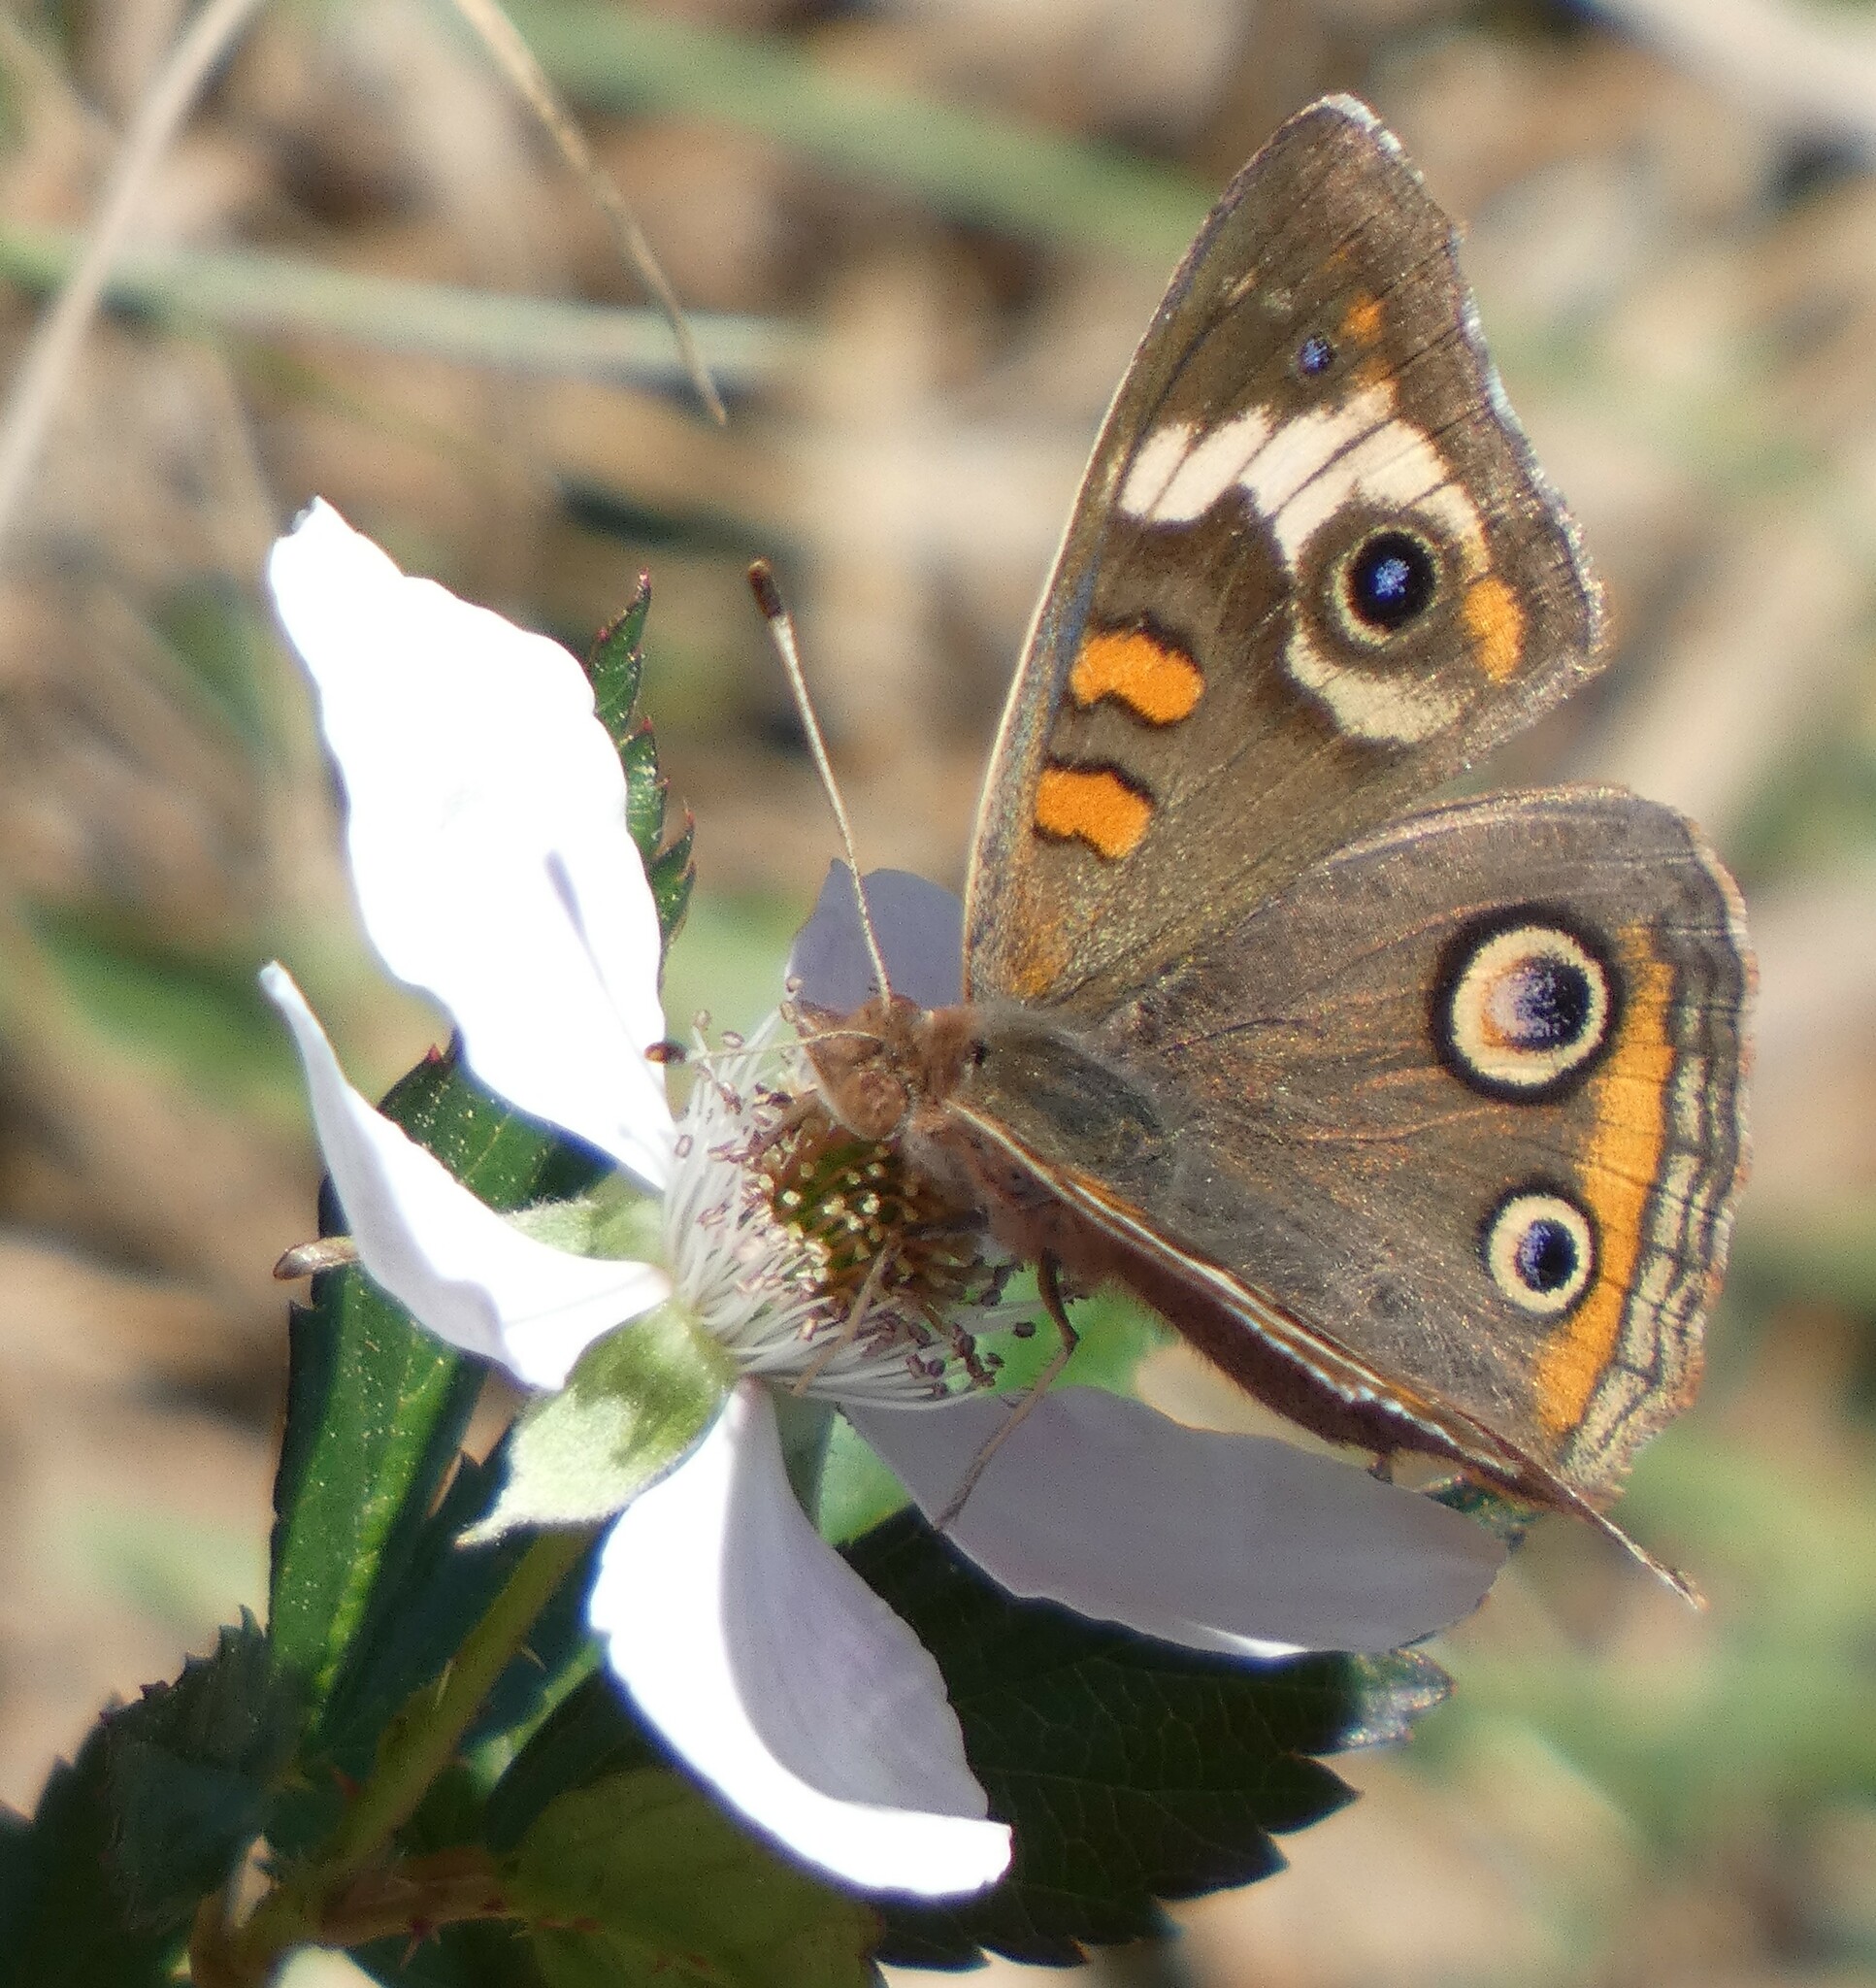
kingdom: Animalia
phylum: Arthropoda
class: Insecta
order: Lepidoptera
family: Nymphalidae
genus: Junonia
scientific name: Junonia coenia
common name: Common buckeye
